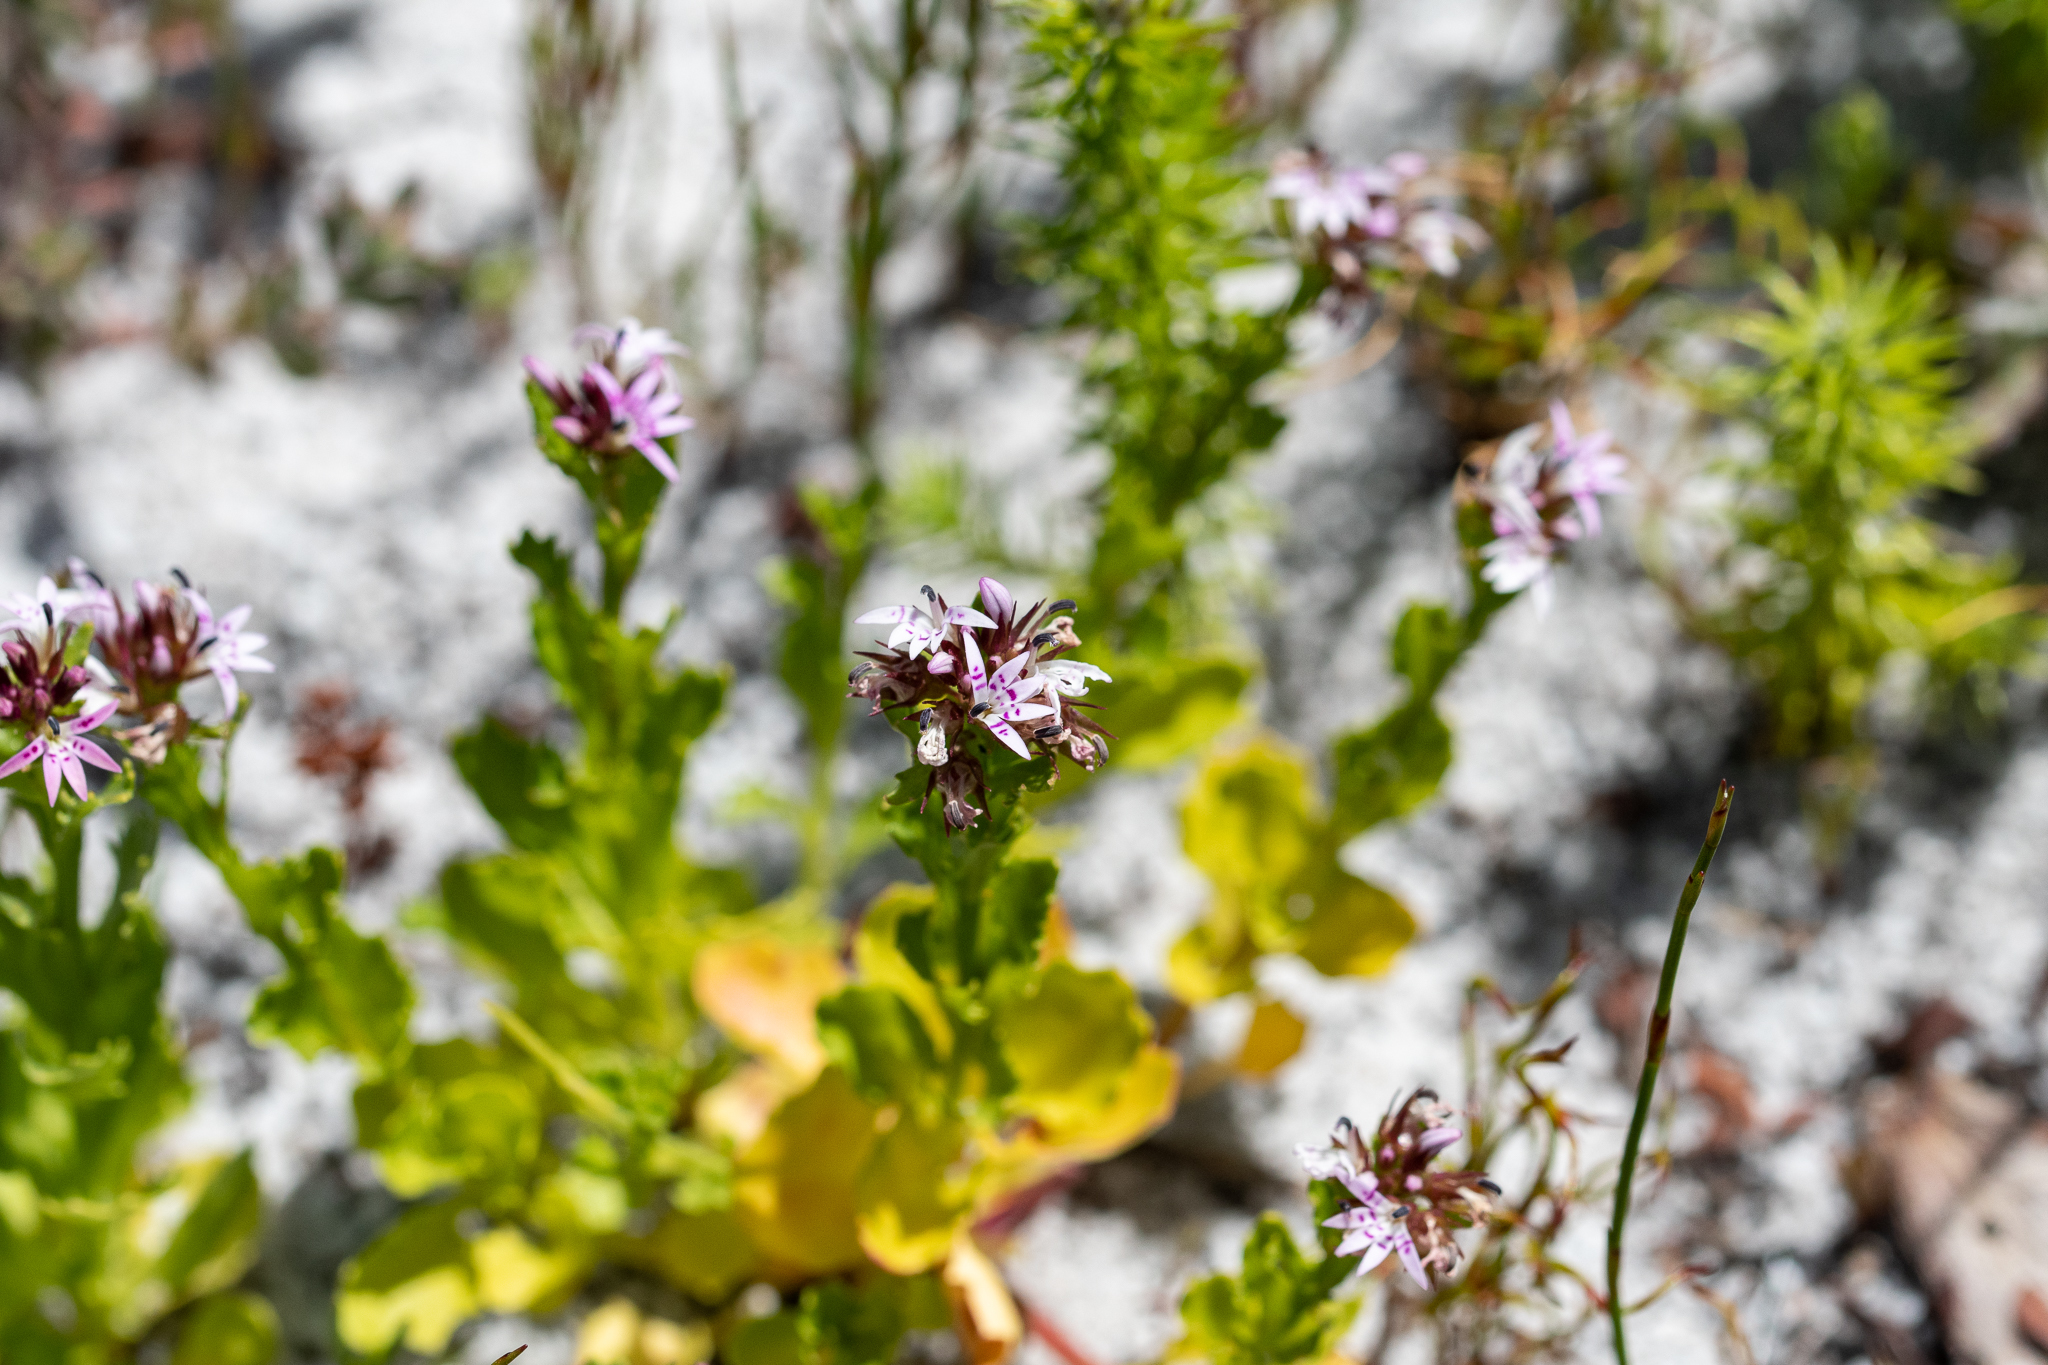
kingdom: Plantae
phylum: Tracheophyta
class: Magnoliopsida
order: Asterales
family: Campanulaceae
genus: Lobelia
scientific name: Lobelia jasionoides
